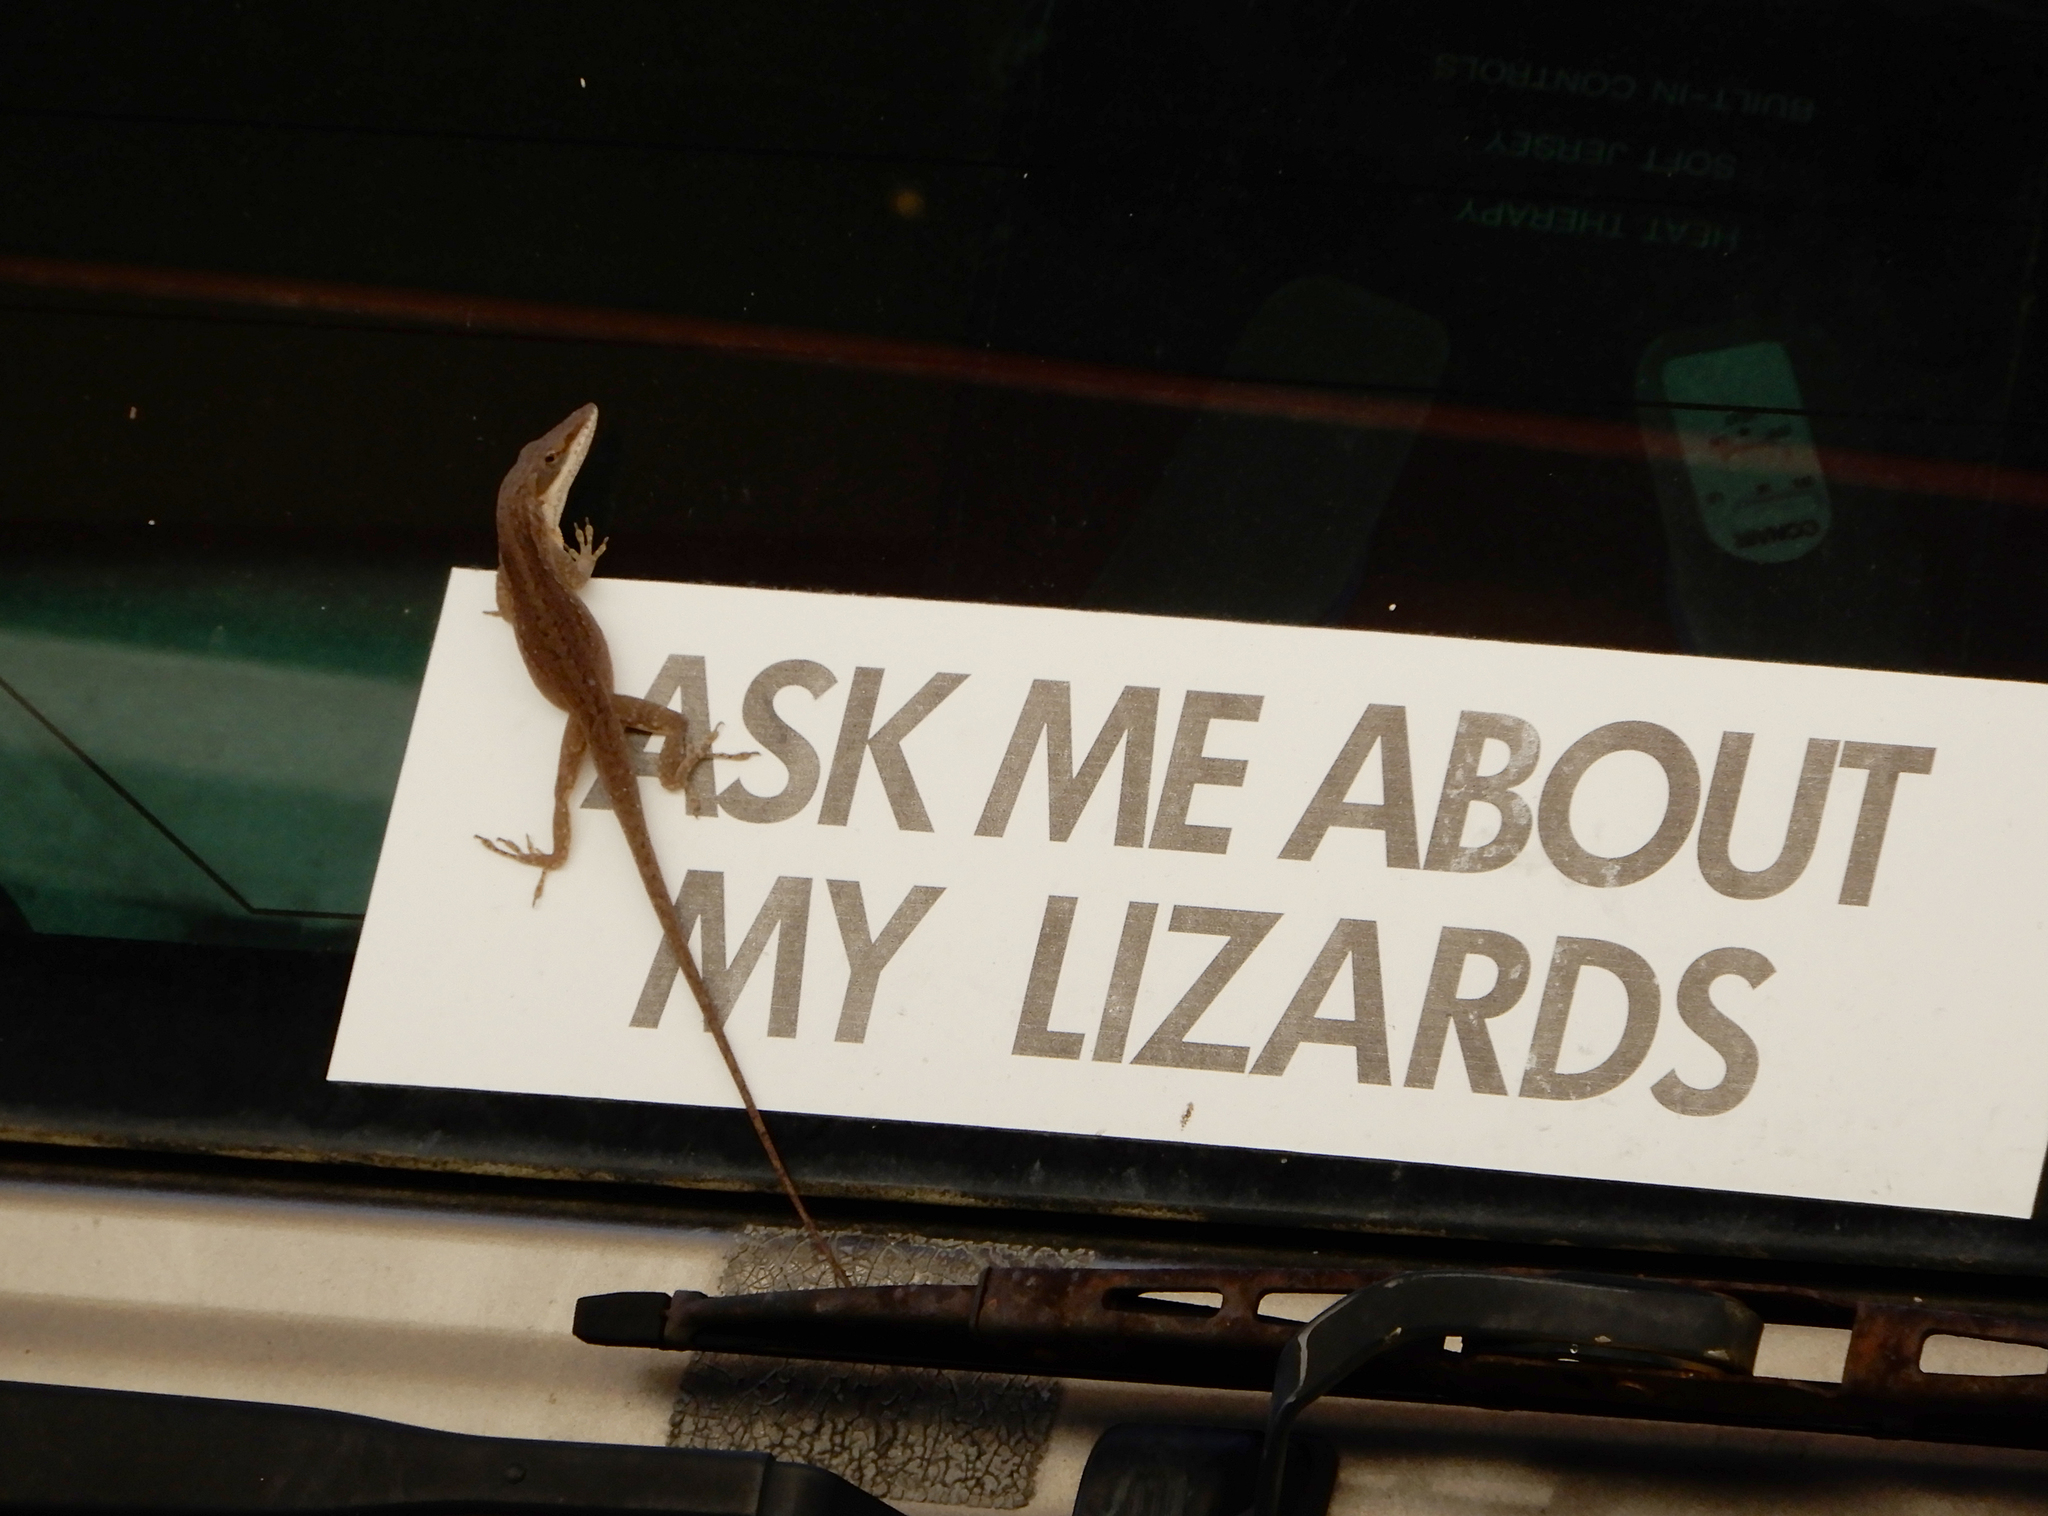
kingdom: Animalia
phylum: Chordata
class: Squamata
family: Dactyloidae
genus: Anolis
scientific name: Anolis carolinensis
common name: Green anole
